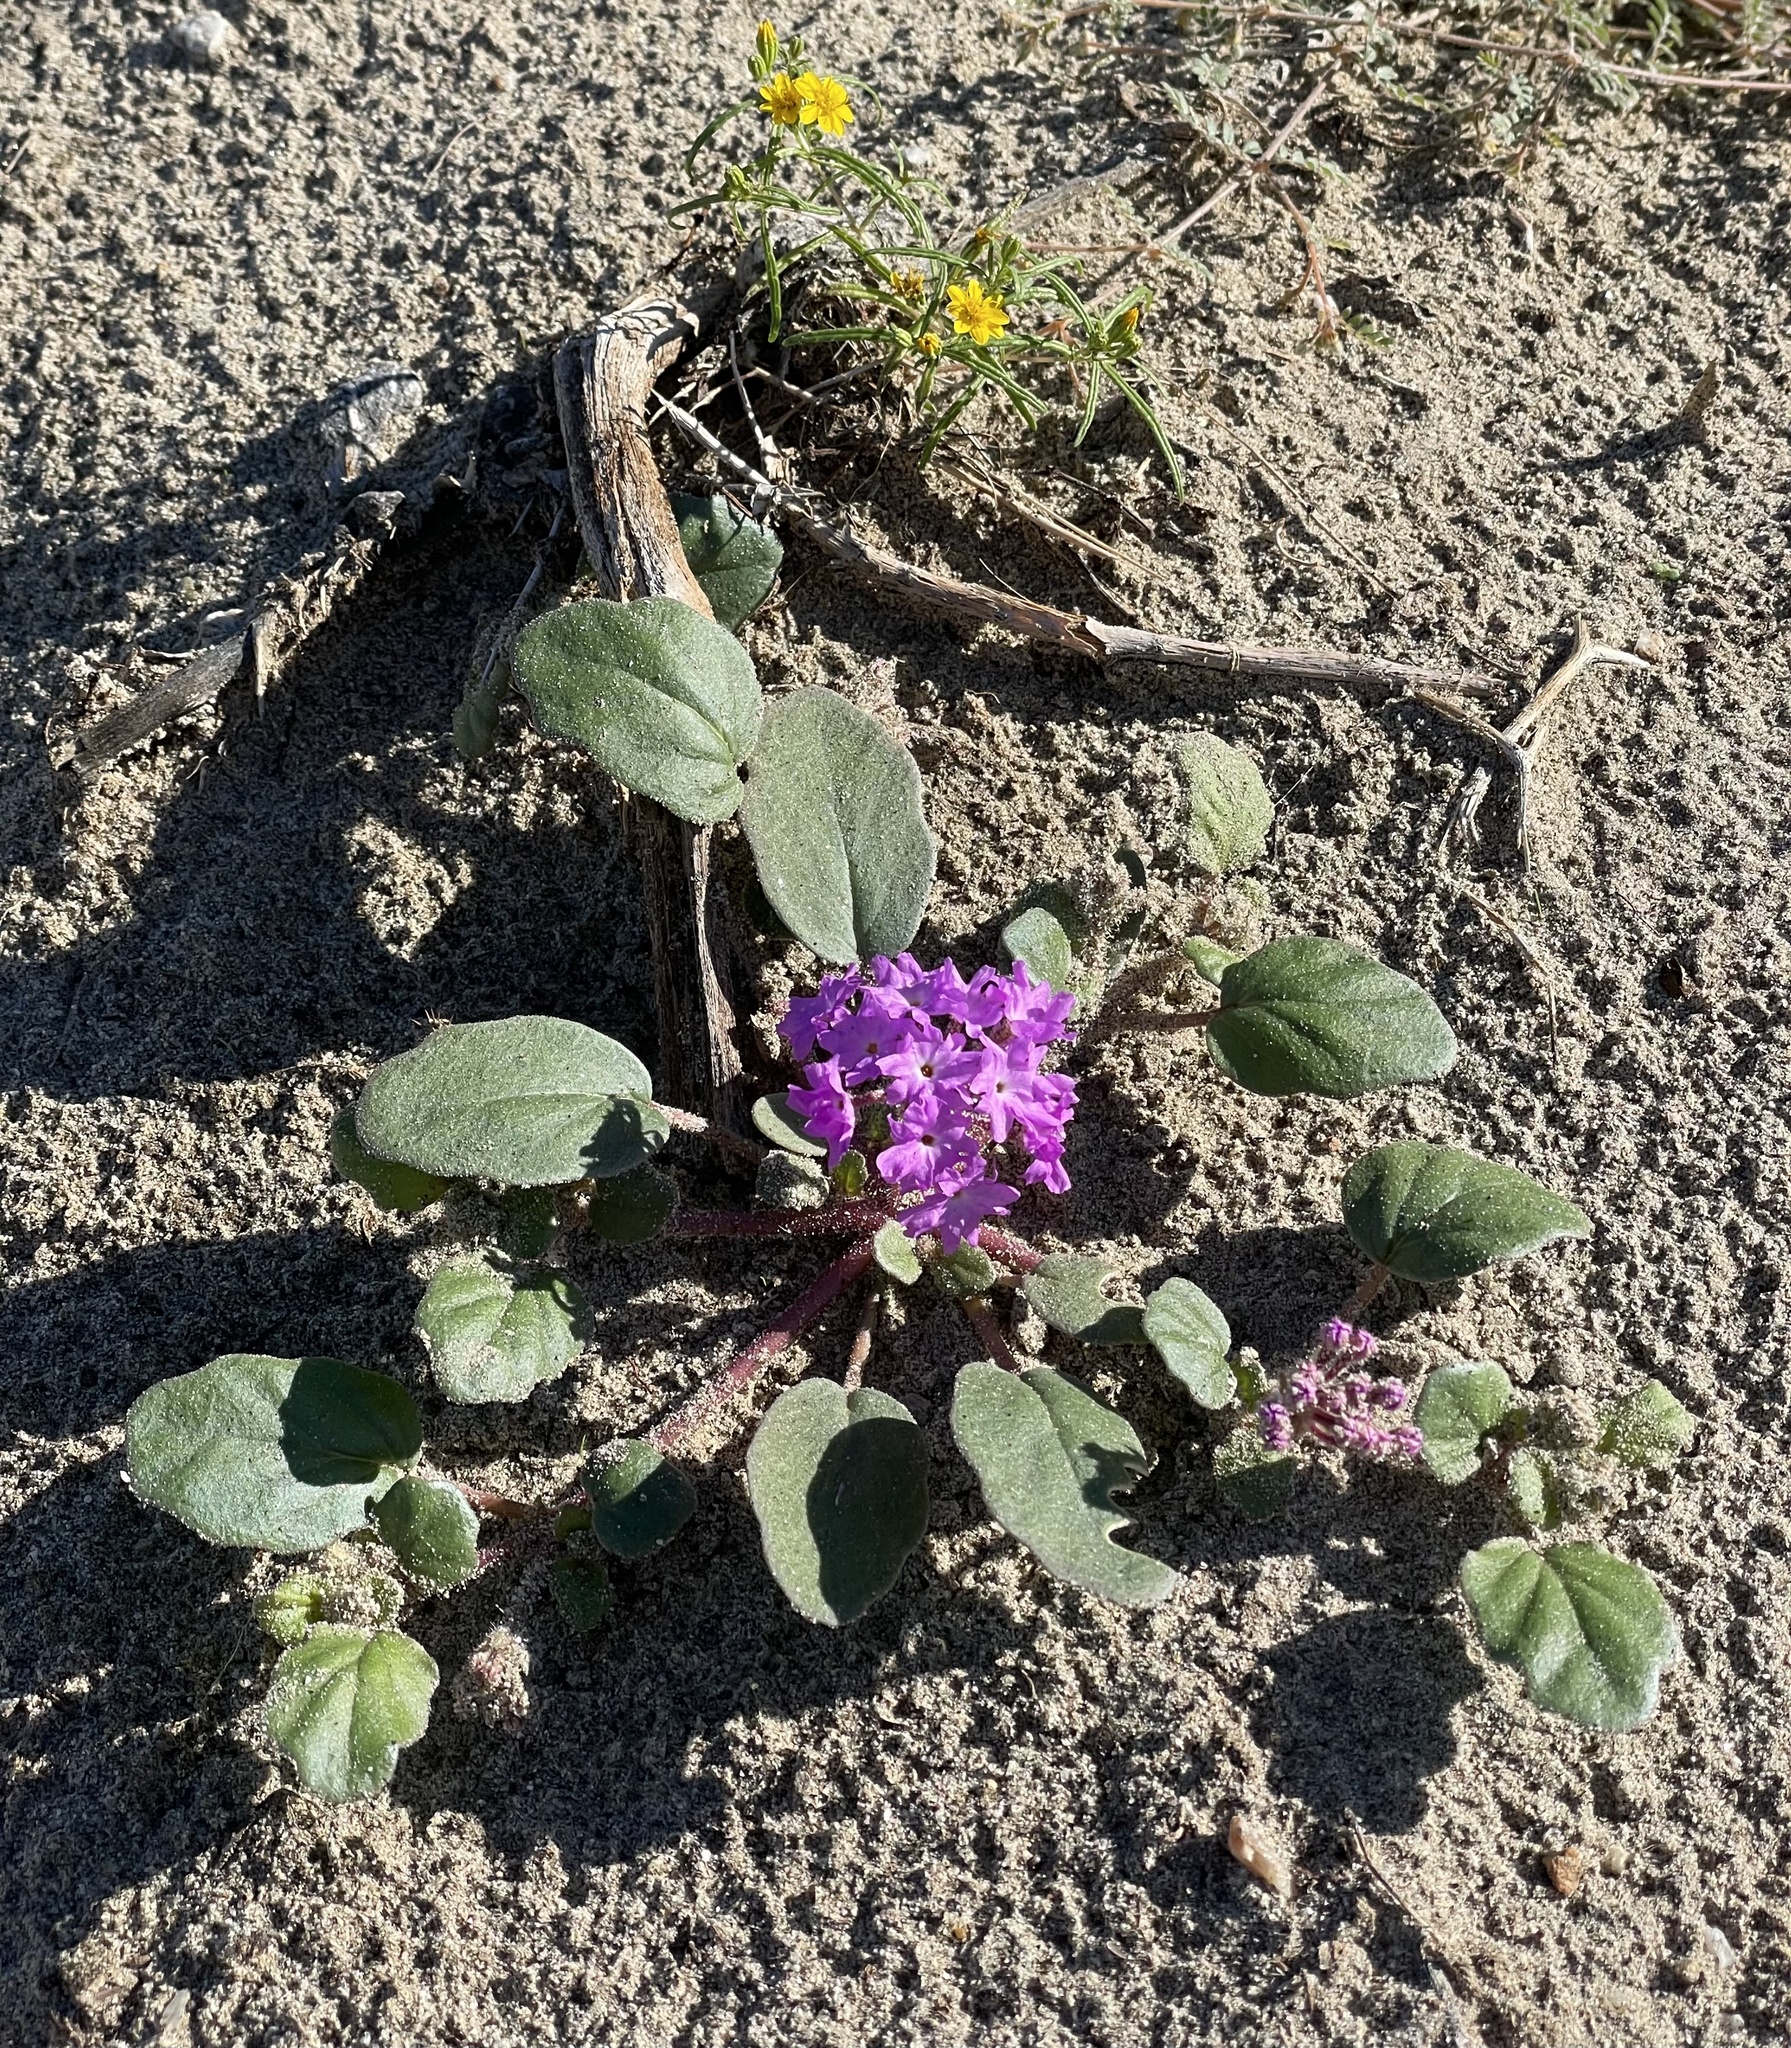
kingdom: Plantae
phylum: Tracheophyta
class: Magnoliopsida
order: Caryophyllales
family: Nyctaginaceae
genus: Abronia
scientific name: Abronia villosa
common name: Desert sand-verbena
